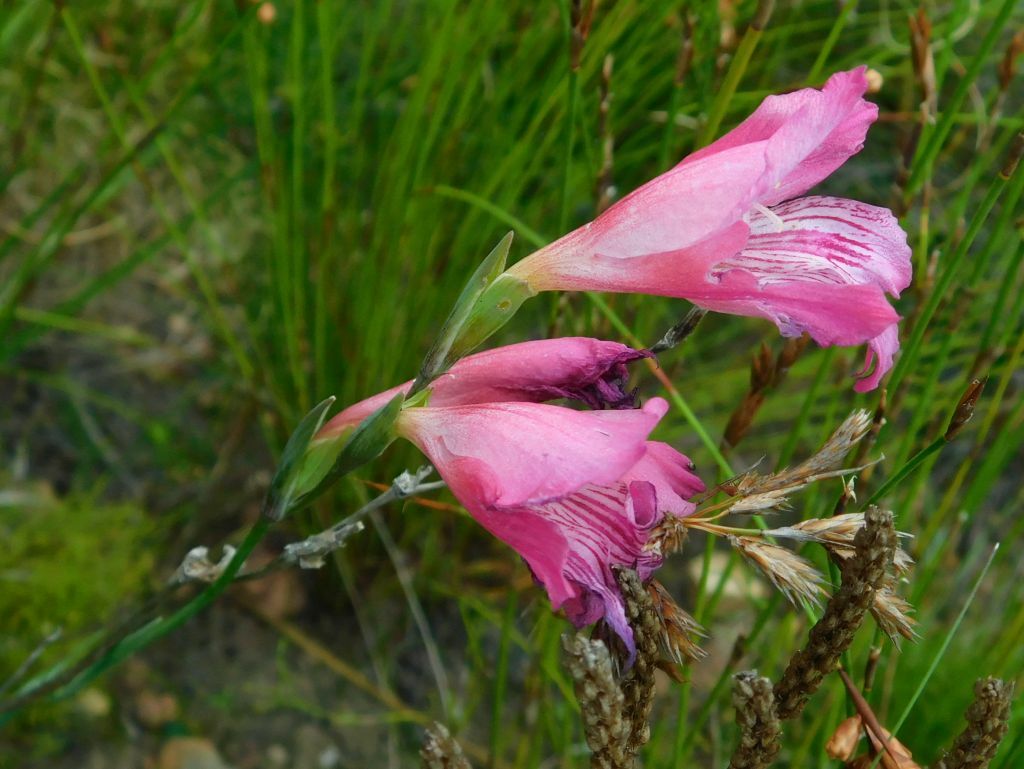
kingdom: Plantae
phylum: Tracheophyta
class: Liliopsida
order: Asparagales
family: Iridaceae
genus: Gladiolus
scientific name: Gladiolus hirsutus
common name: Small pink afrikaner
